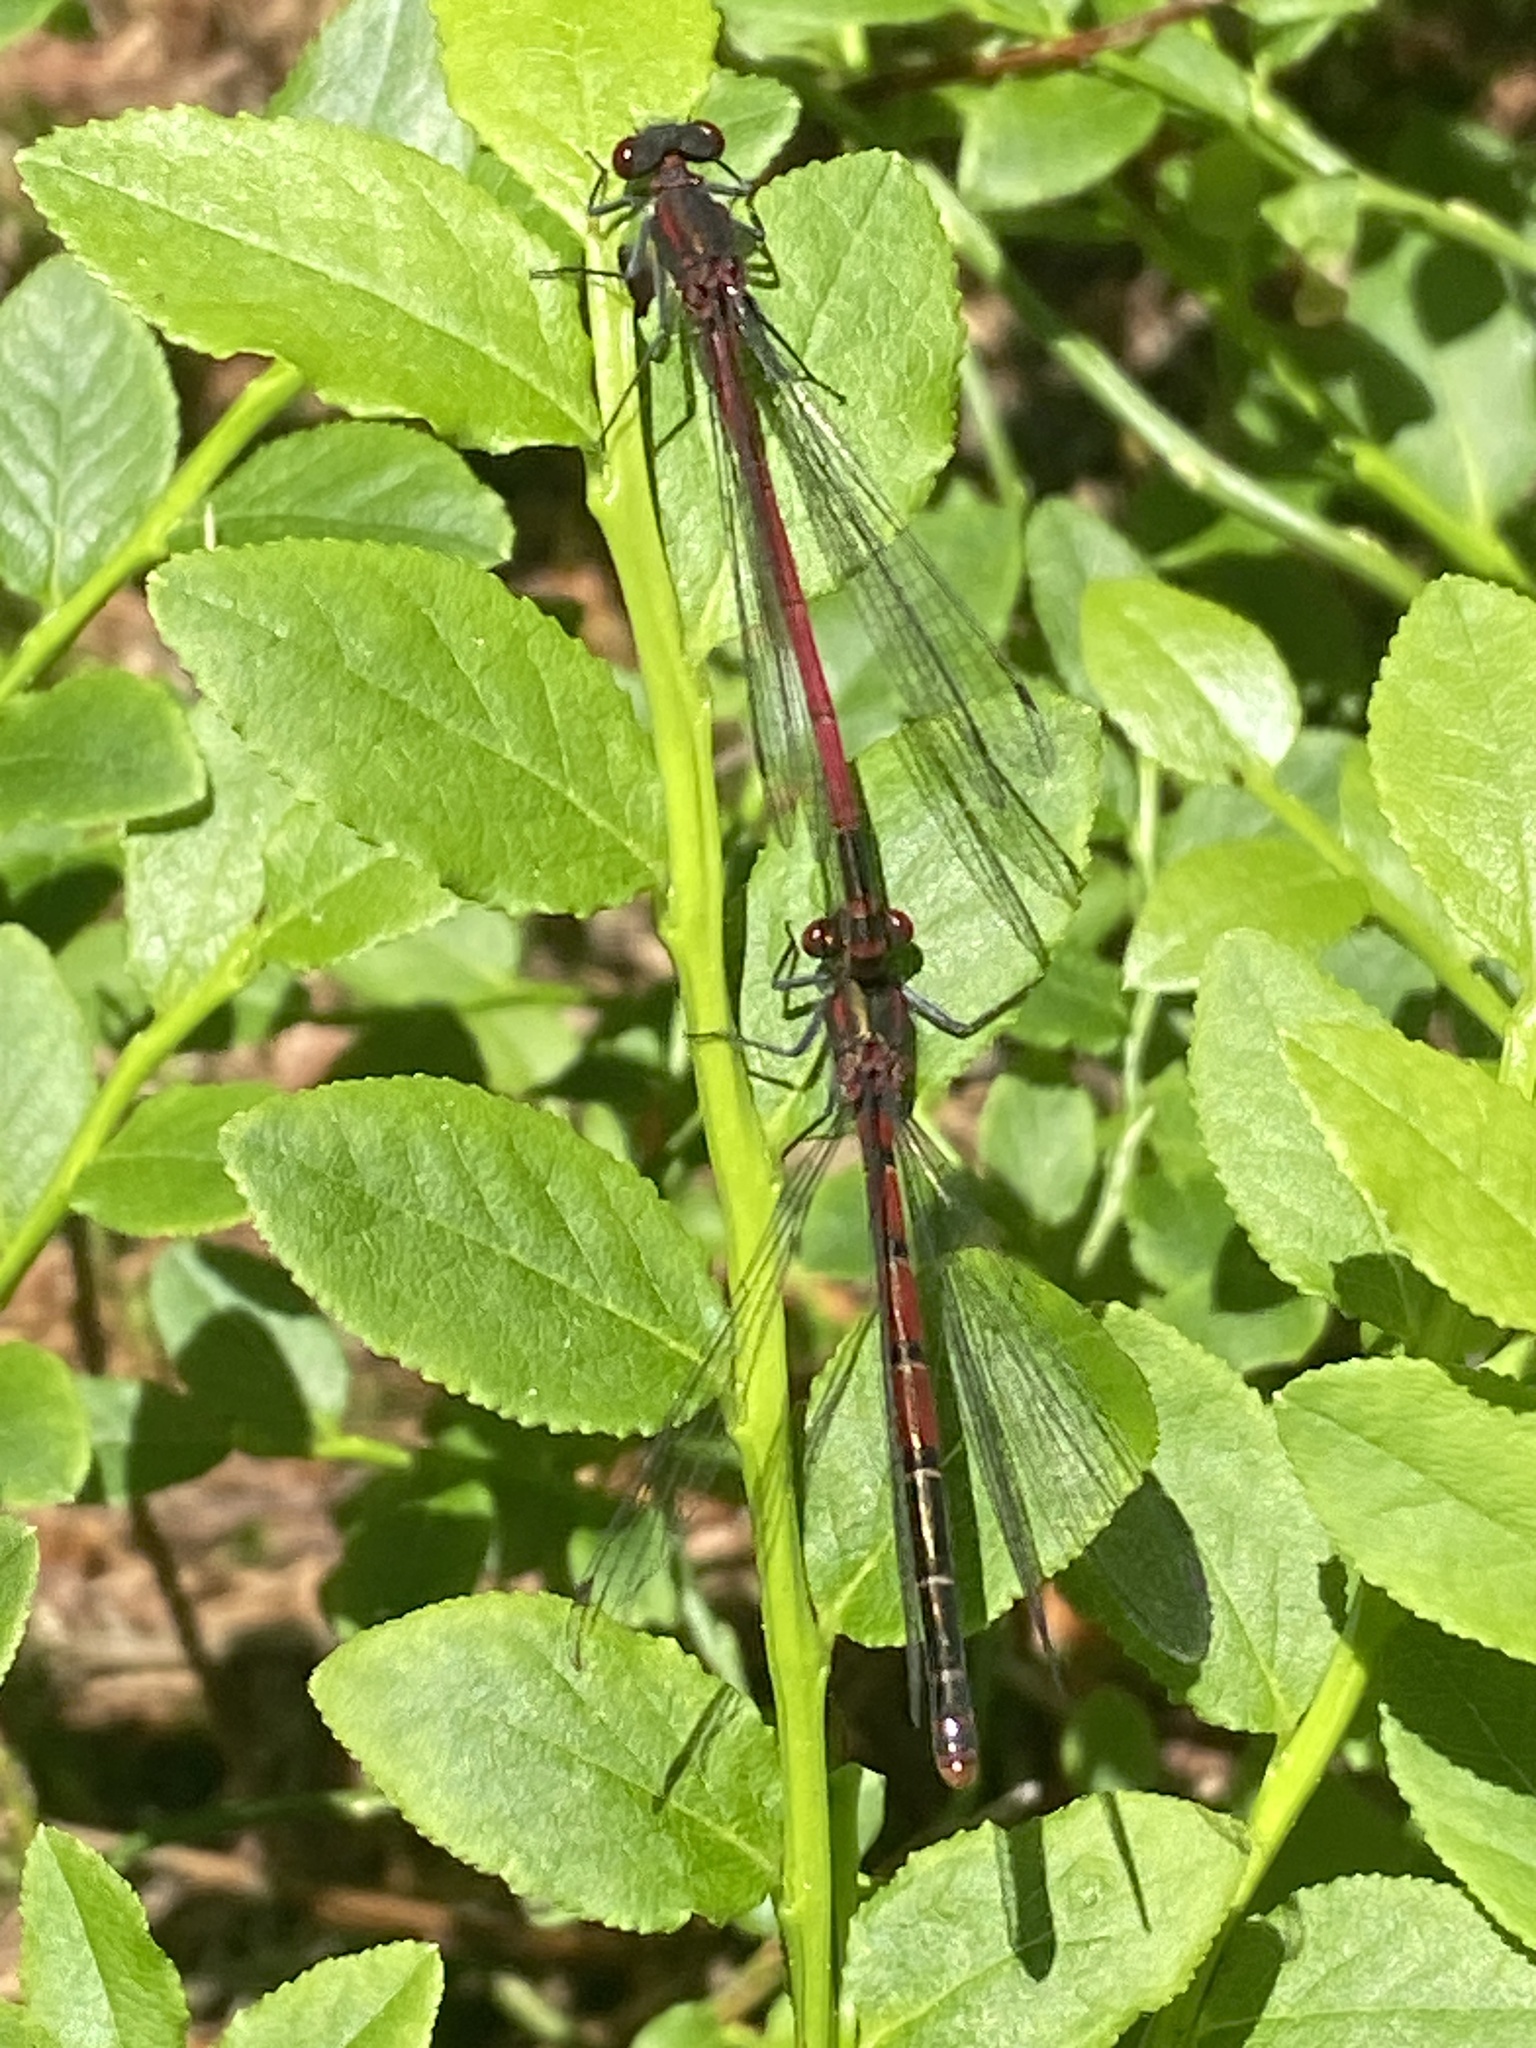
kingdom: Animalia
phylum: Arthropoda
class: Insecta
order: Odonata
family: Coenagrionidae
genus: Pyrrhosoma
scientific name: Pyrrhosoma nymphula
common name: Large red damsel
